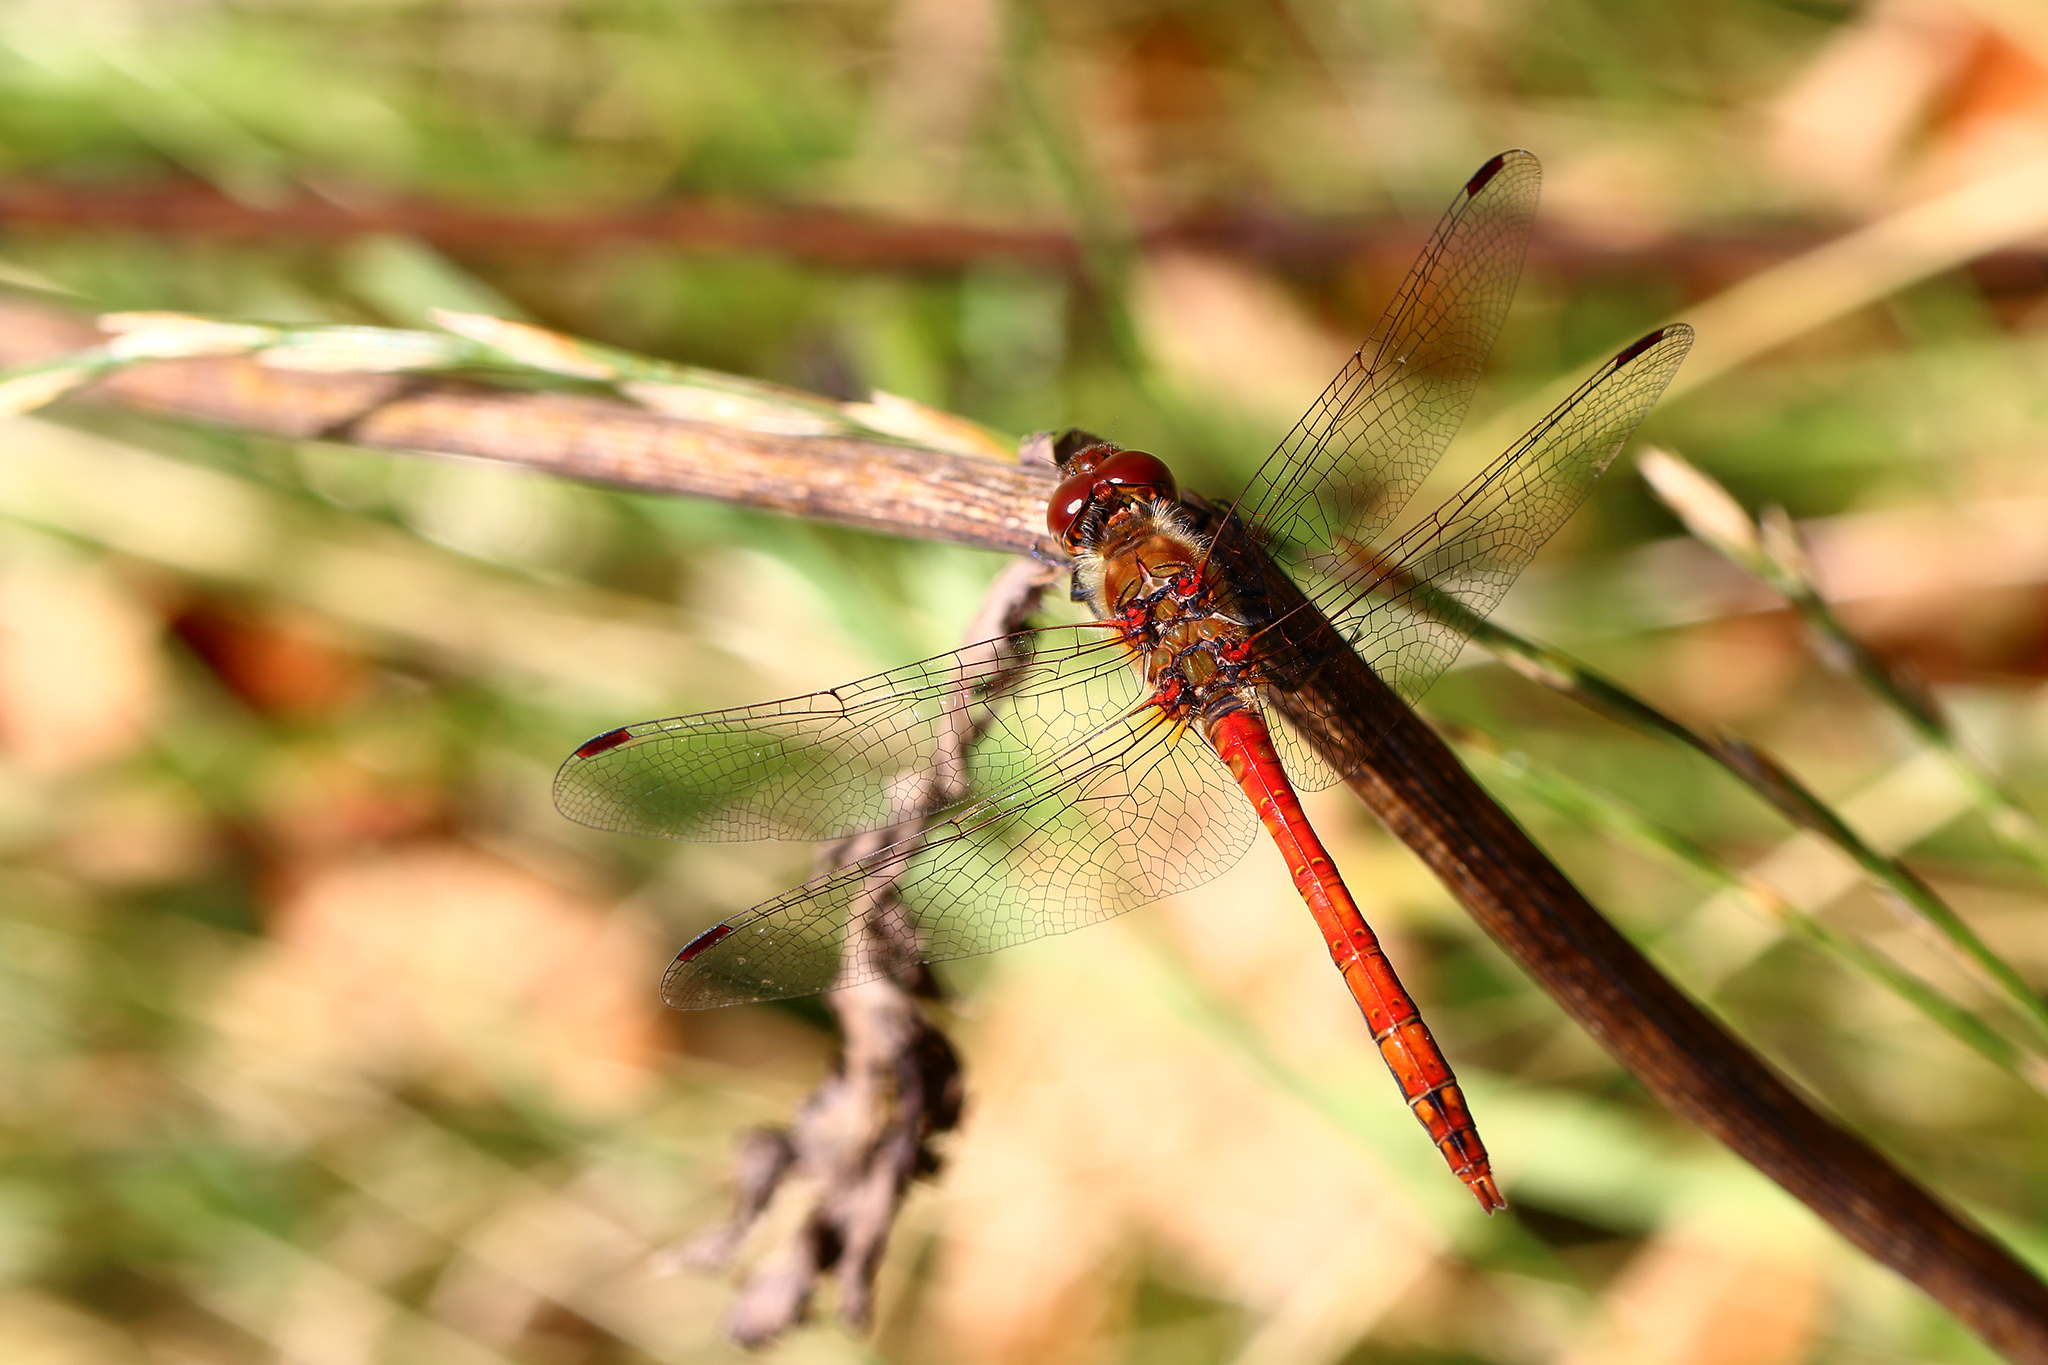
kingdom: Animalia
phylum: Arthropoda
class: Insecta
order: Odonata
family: Libellulidae
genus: Sympetrum
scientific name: Sympetrum sanguineum
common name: Ruddy darter
